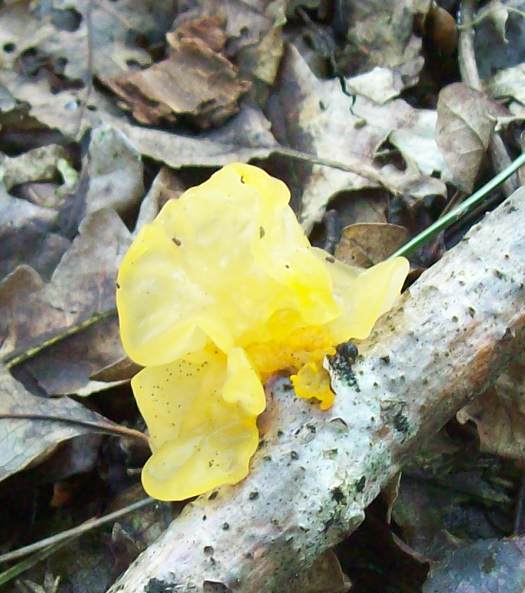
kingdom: Fungi
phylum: Basidiomycota
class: Tremellomycetes
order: Tremellales
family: Tremellaceae
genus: Tremella
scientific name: Tremella mesenterica
